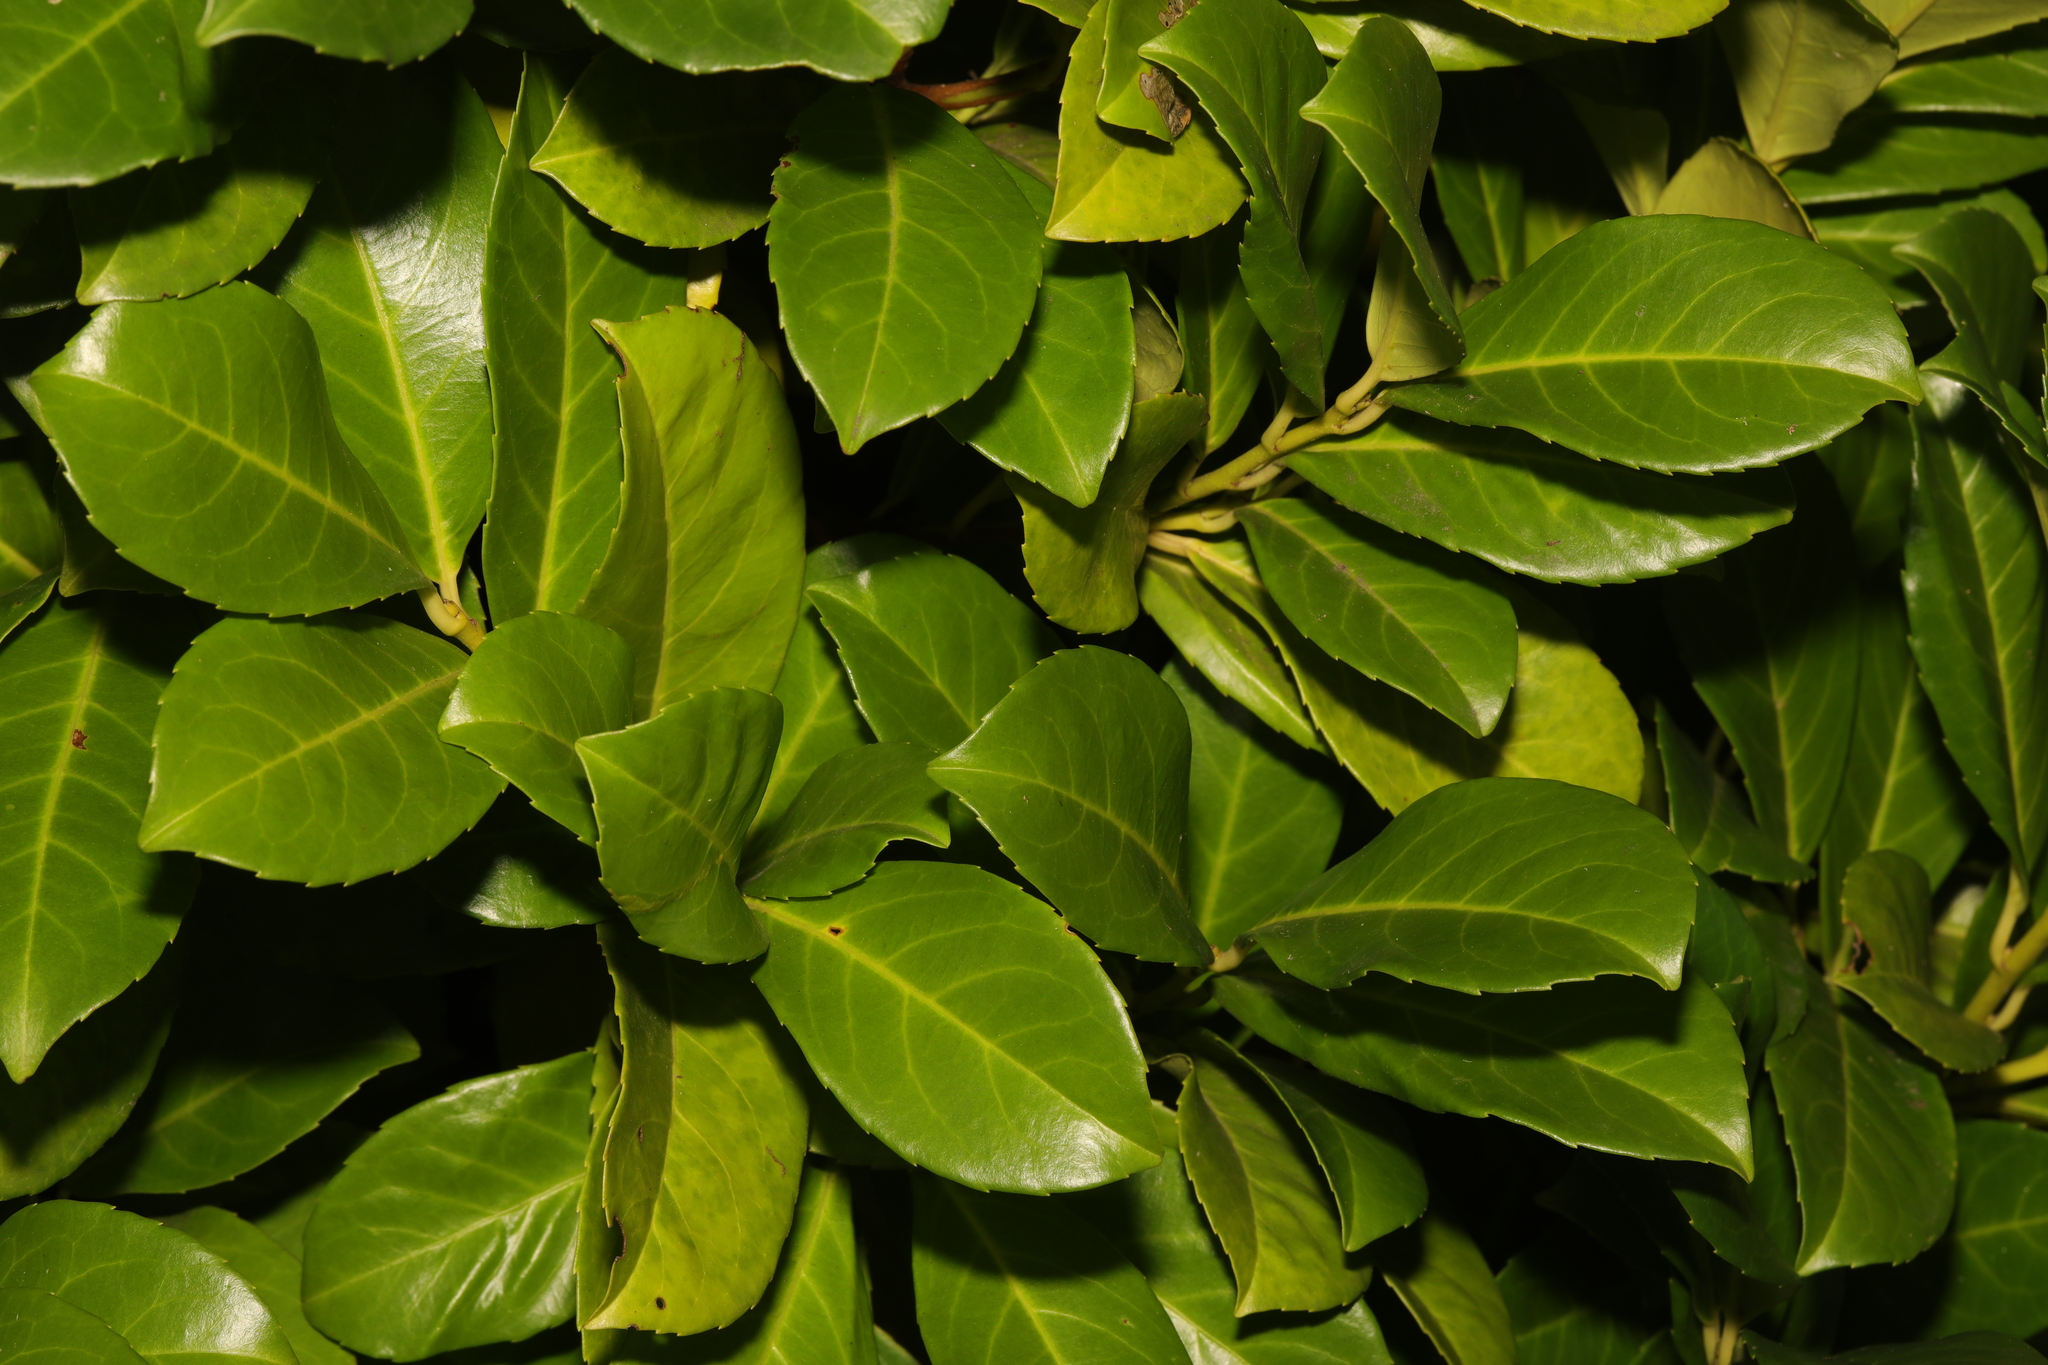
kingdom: Plantae
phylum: Tracheophyta
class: Magnoliopsida
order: Rosales
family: Rosaceae
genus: Prunus
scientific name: Prunus laurocerasus
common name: Cherry laurel
